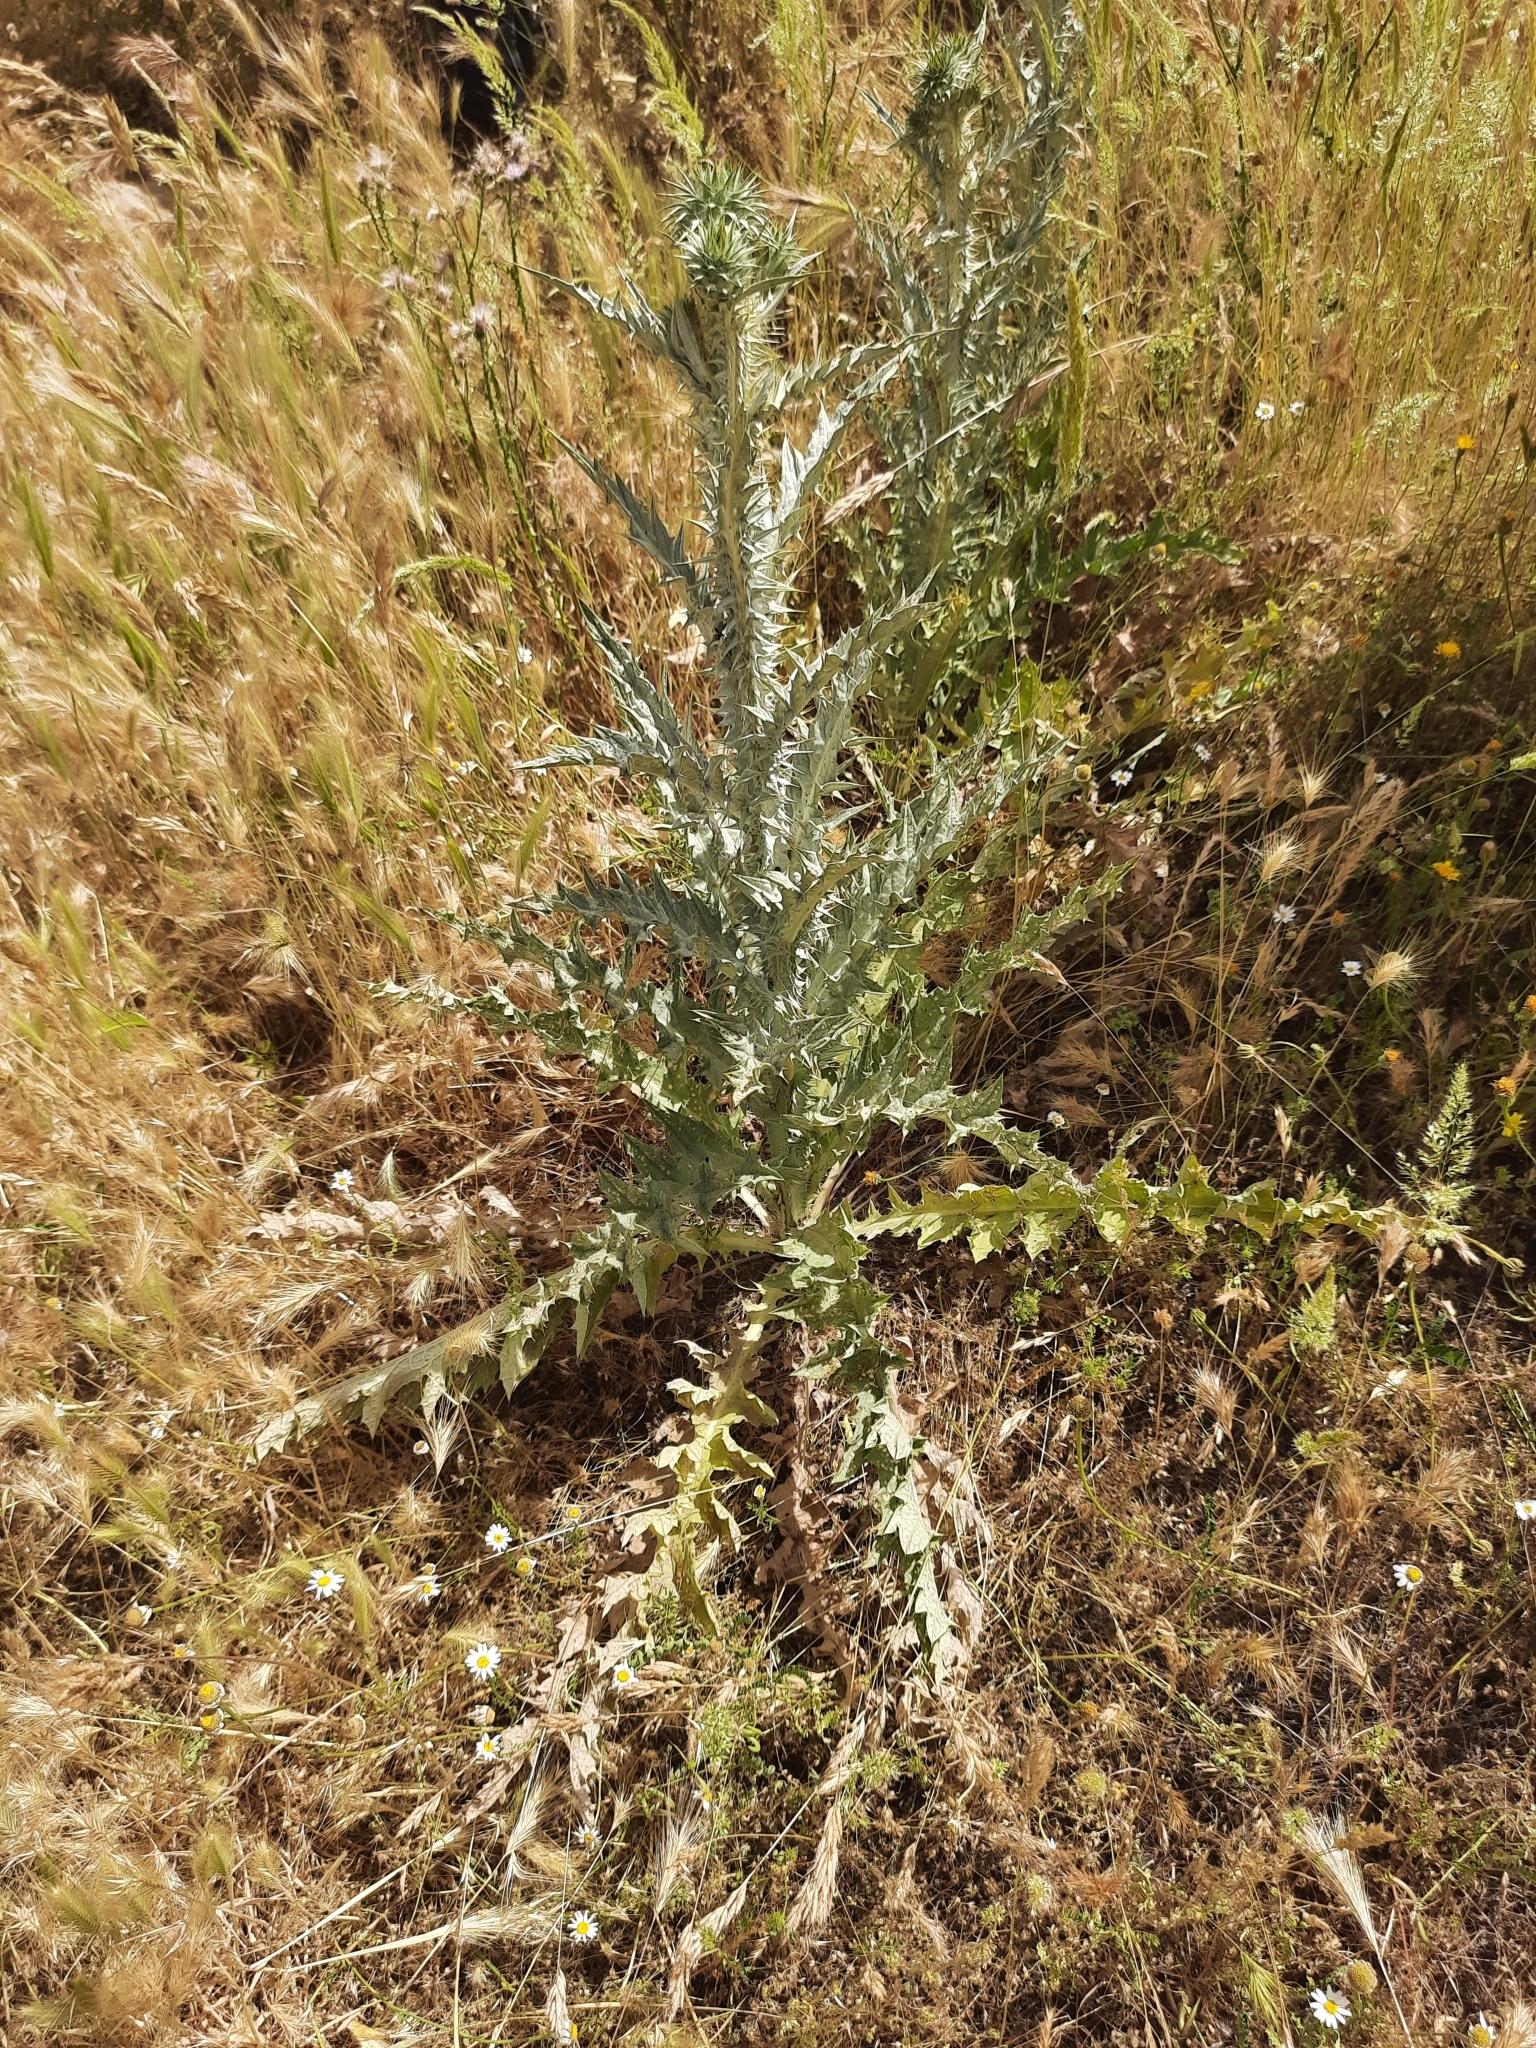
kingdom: Plantae
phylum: Tracheophyta
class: Magnoliopsida
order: Asterales
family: Asteraceae
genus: Onopordum
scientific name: Onopordum illyricum
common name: Illyrian thistle
